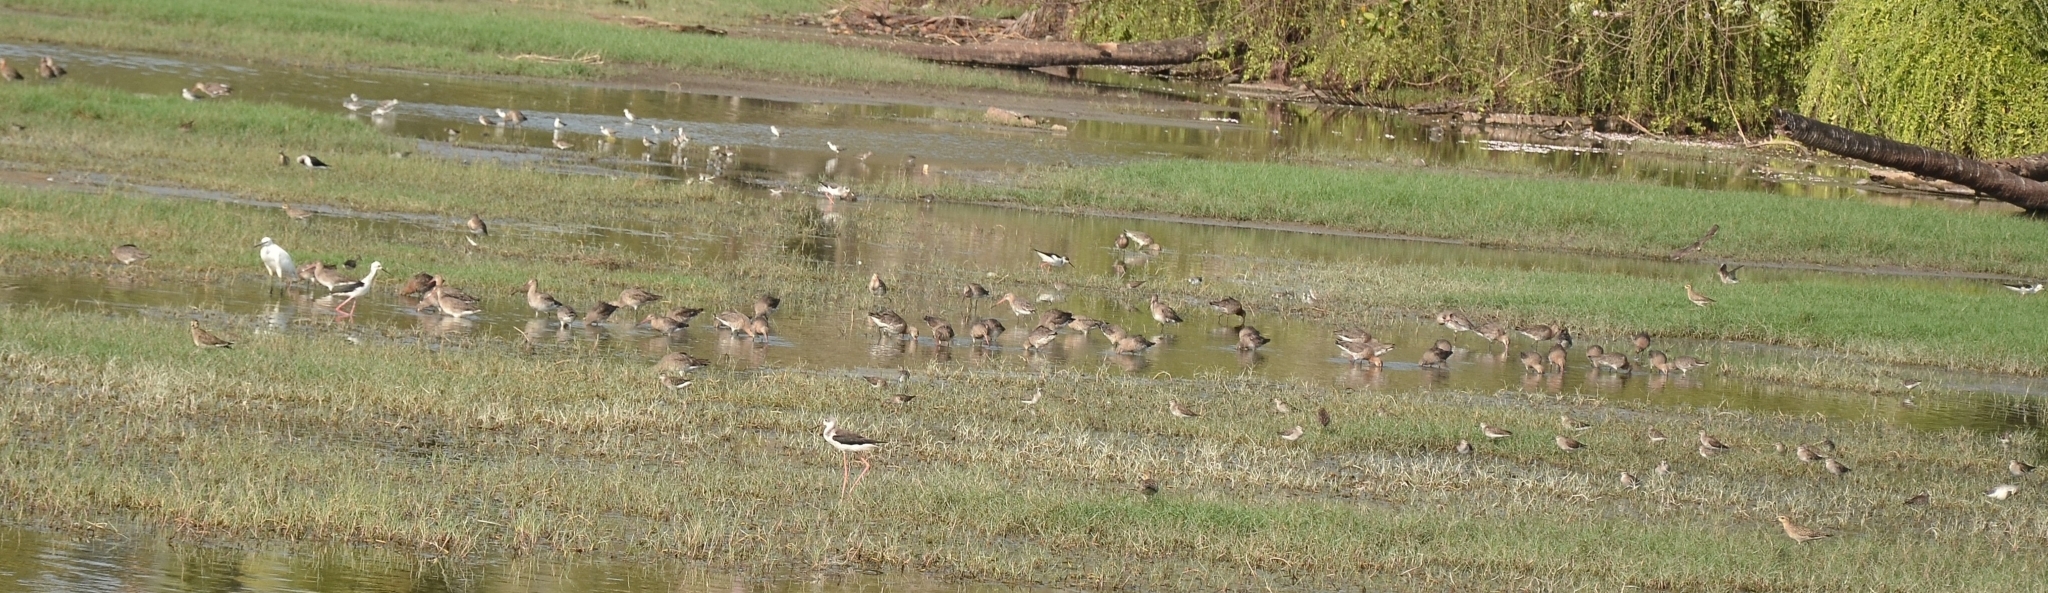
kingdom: Animalia
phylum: Chordata
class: Aves
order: Charadriiformes
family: Scolopacidae
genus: Limosa
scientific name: Limosa limosa
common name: Black-tailed godwit
